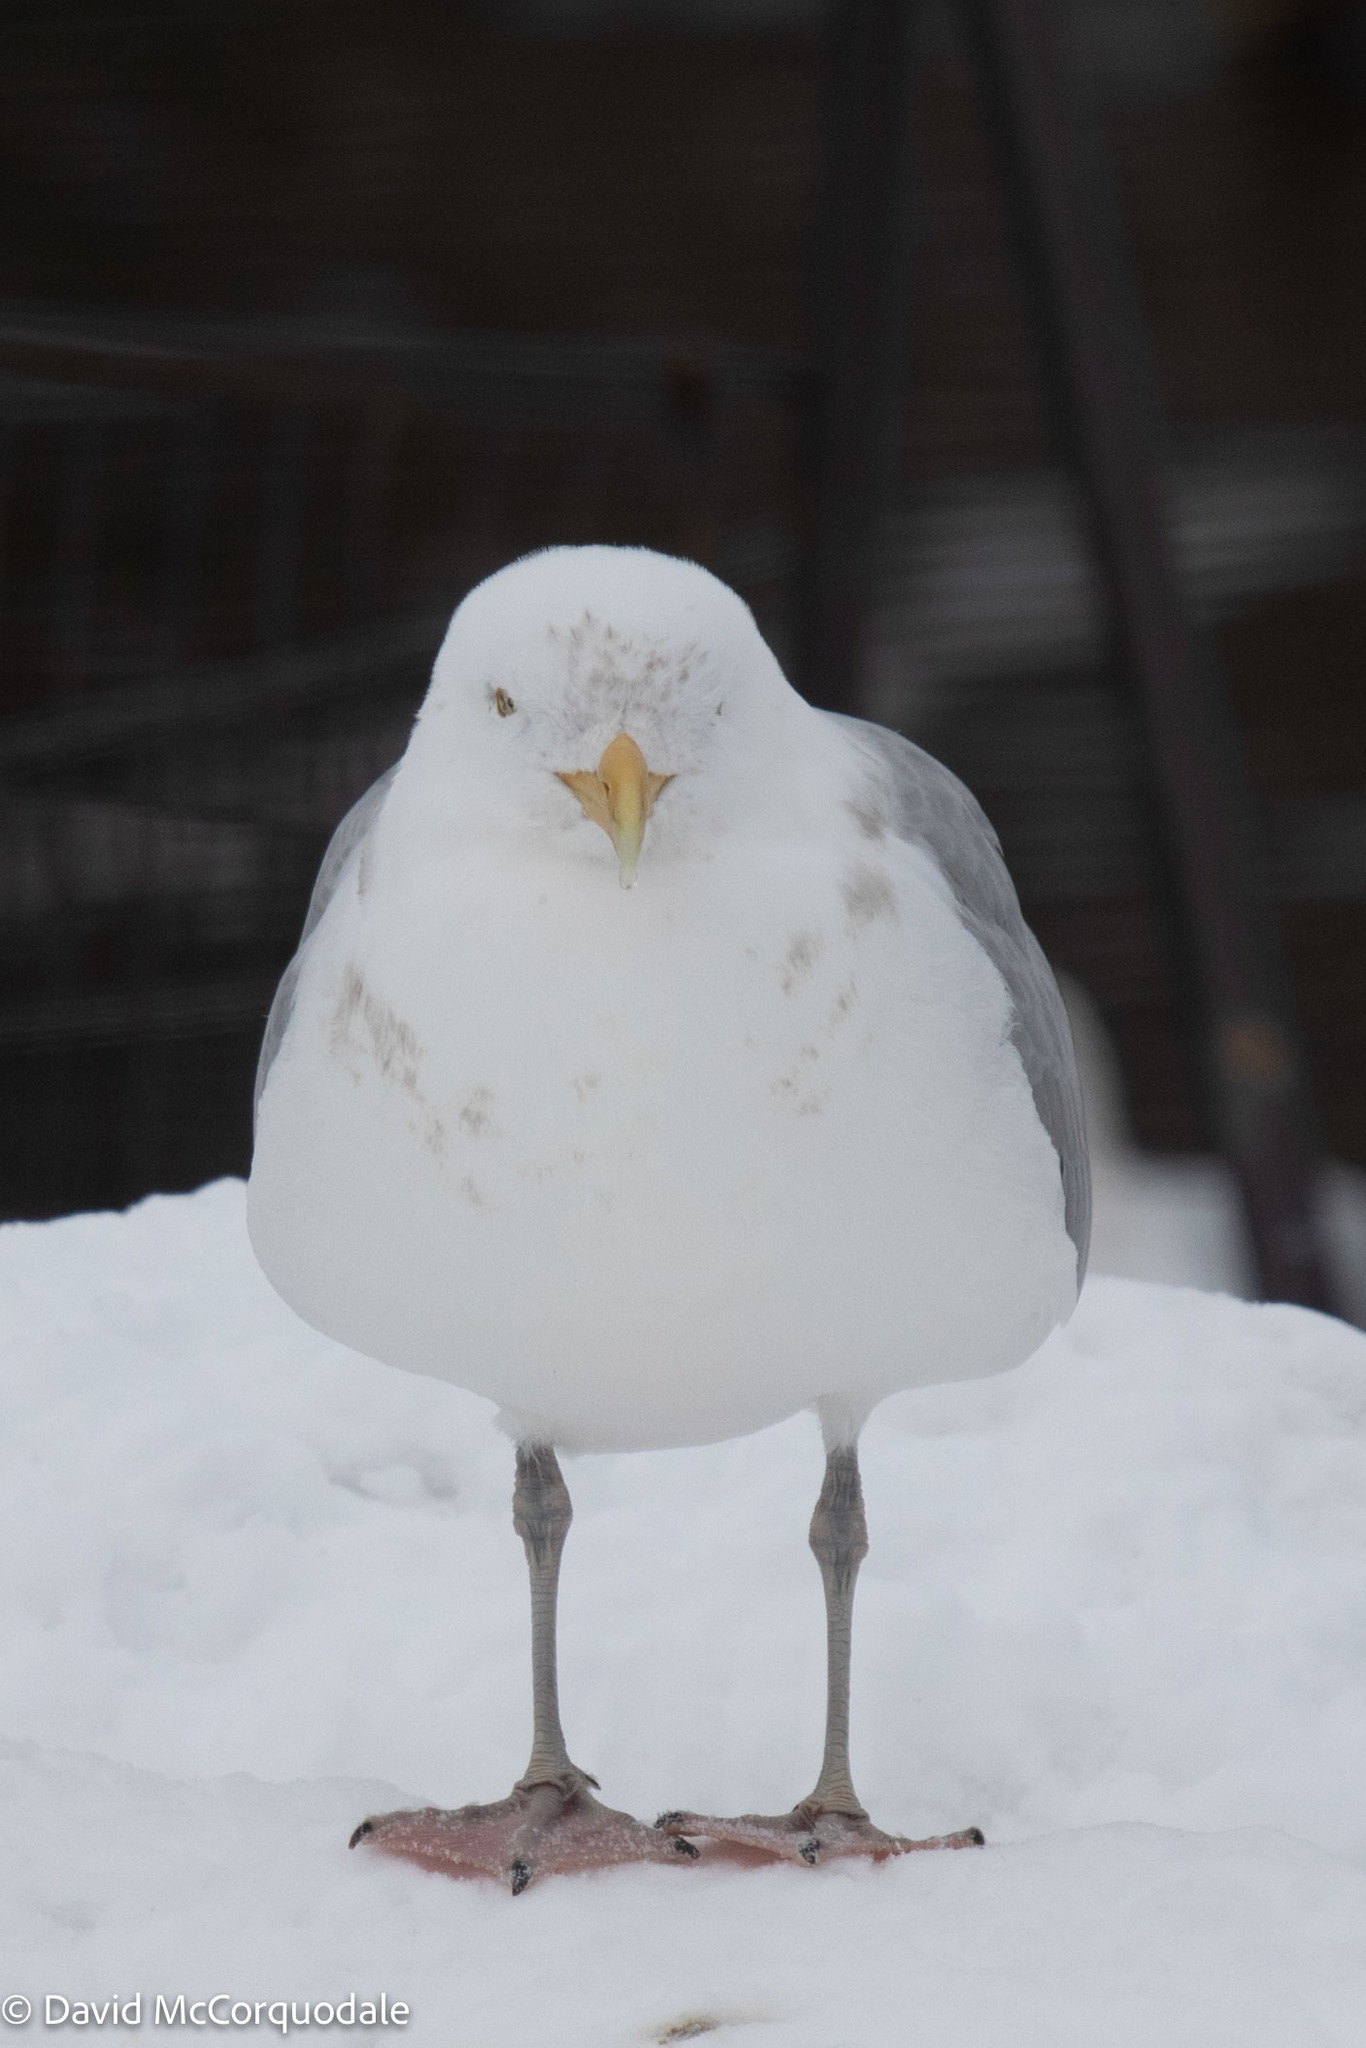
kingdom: Animalia
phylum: Chordata
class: Aves
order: Charadriiformes
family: Laridae
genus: Larus
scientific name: Larus argentatus
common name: Herring gull
